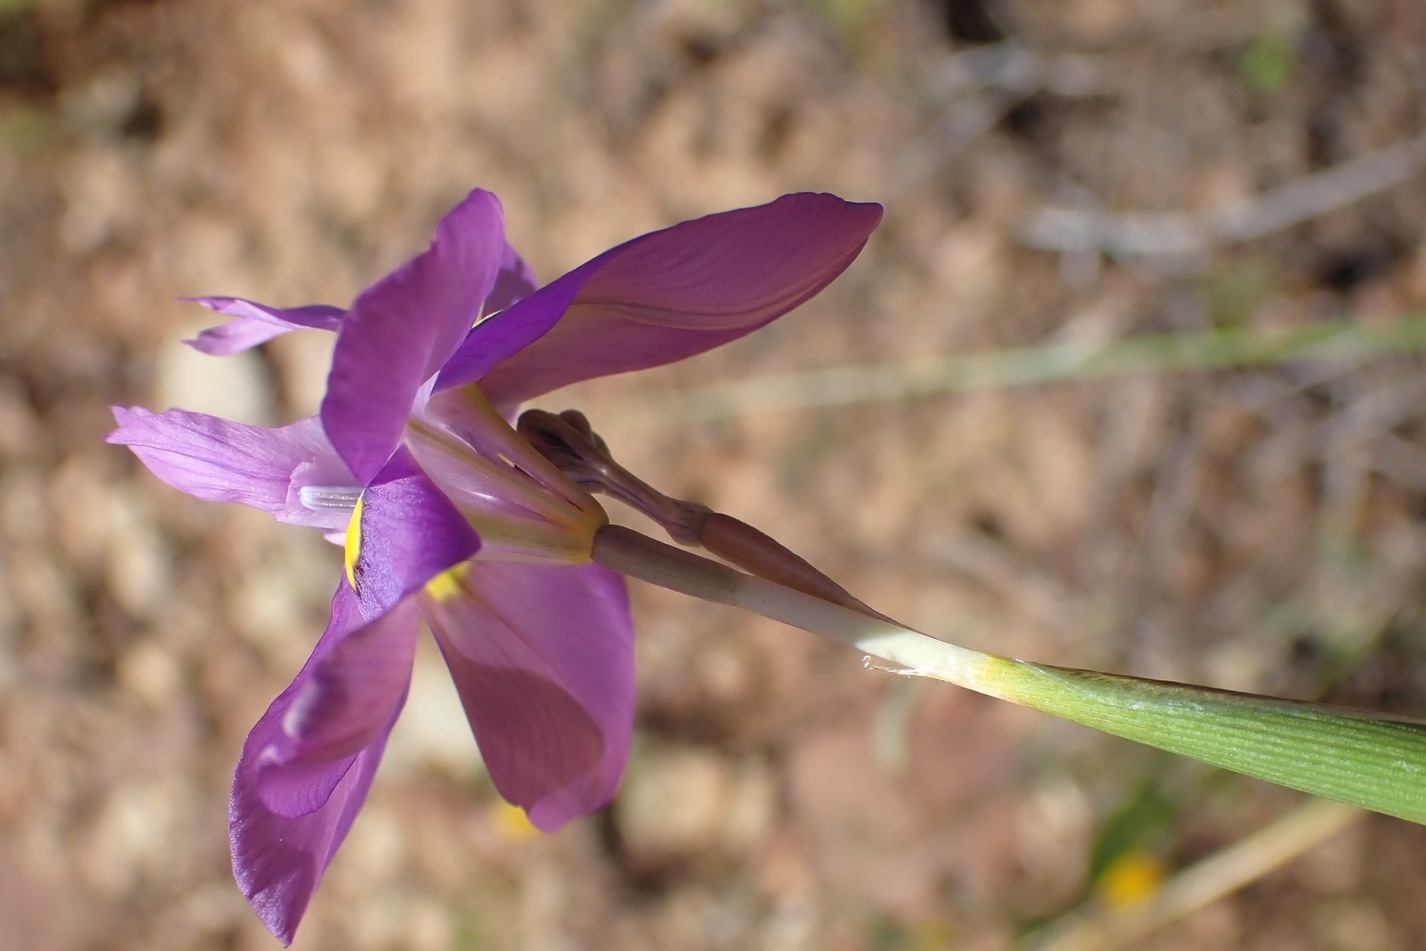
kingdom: Plantae
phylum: Tracheophyta
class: Liliopsida
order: Asparagales
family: Iridaceae
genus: Moraea
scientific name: Moraea bipartita
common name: Blue tulp
